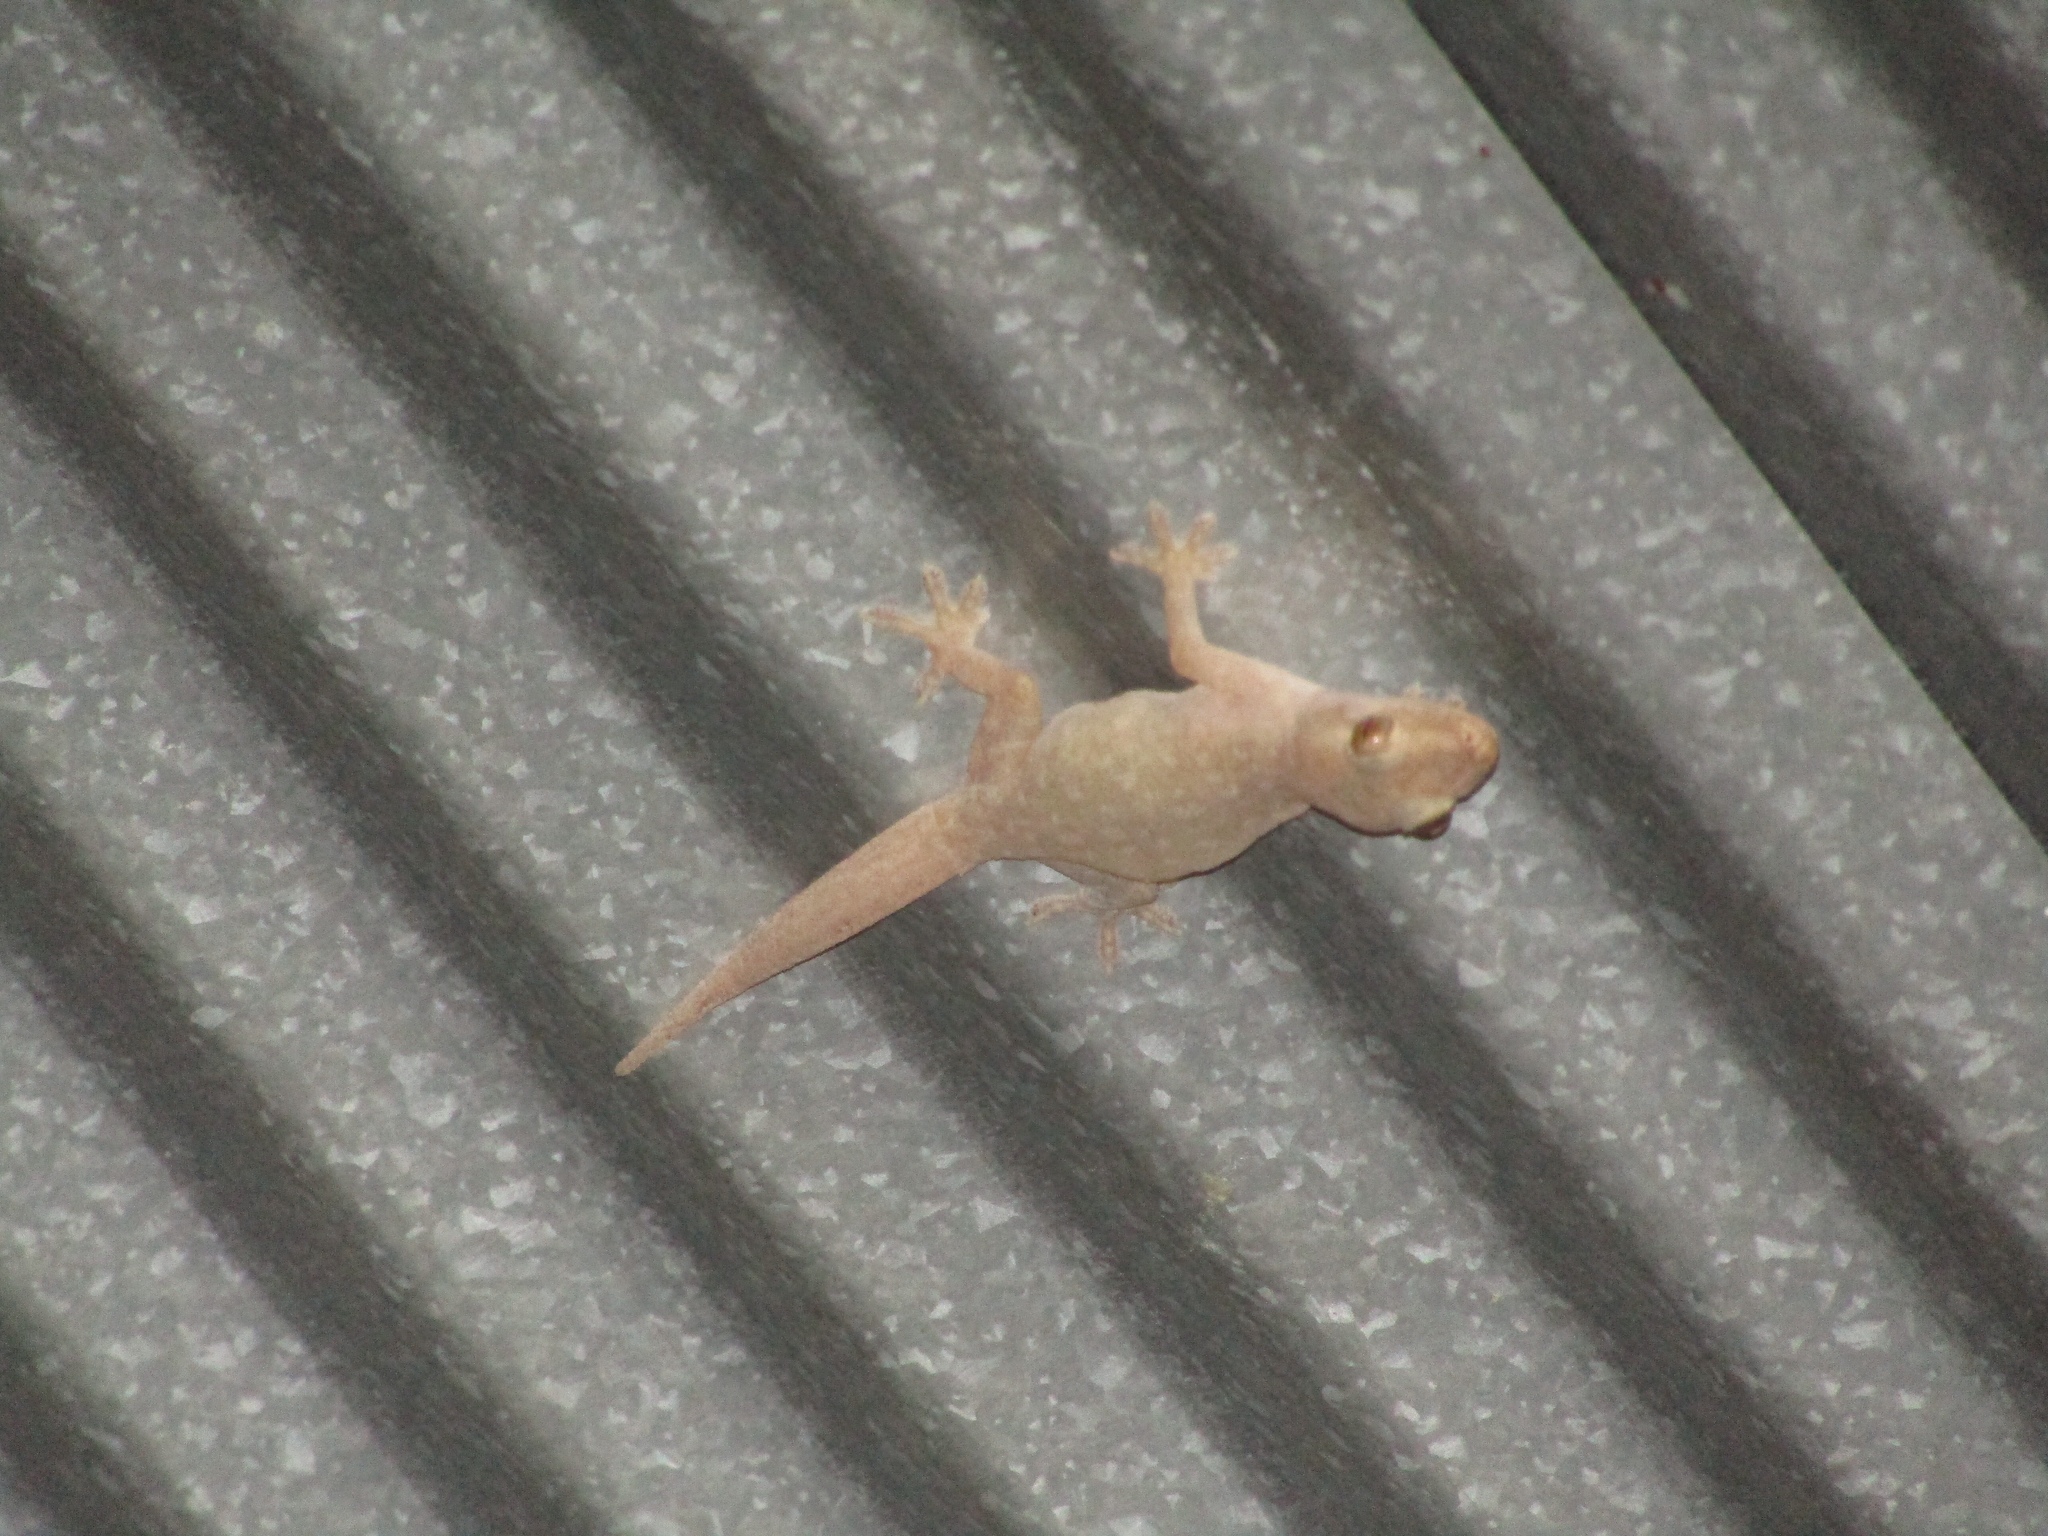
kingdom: Animalia
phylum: Chordata
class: Squamata
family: Gekkonidae
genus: Hemidactylus
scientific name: Hemidactylus frenatus
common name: Common house gecko
